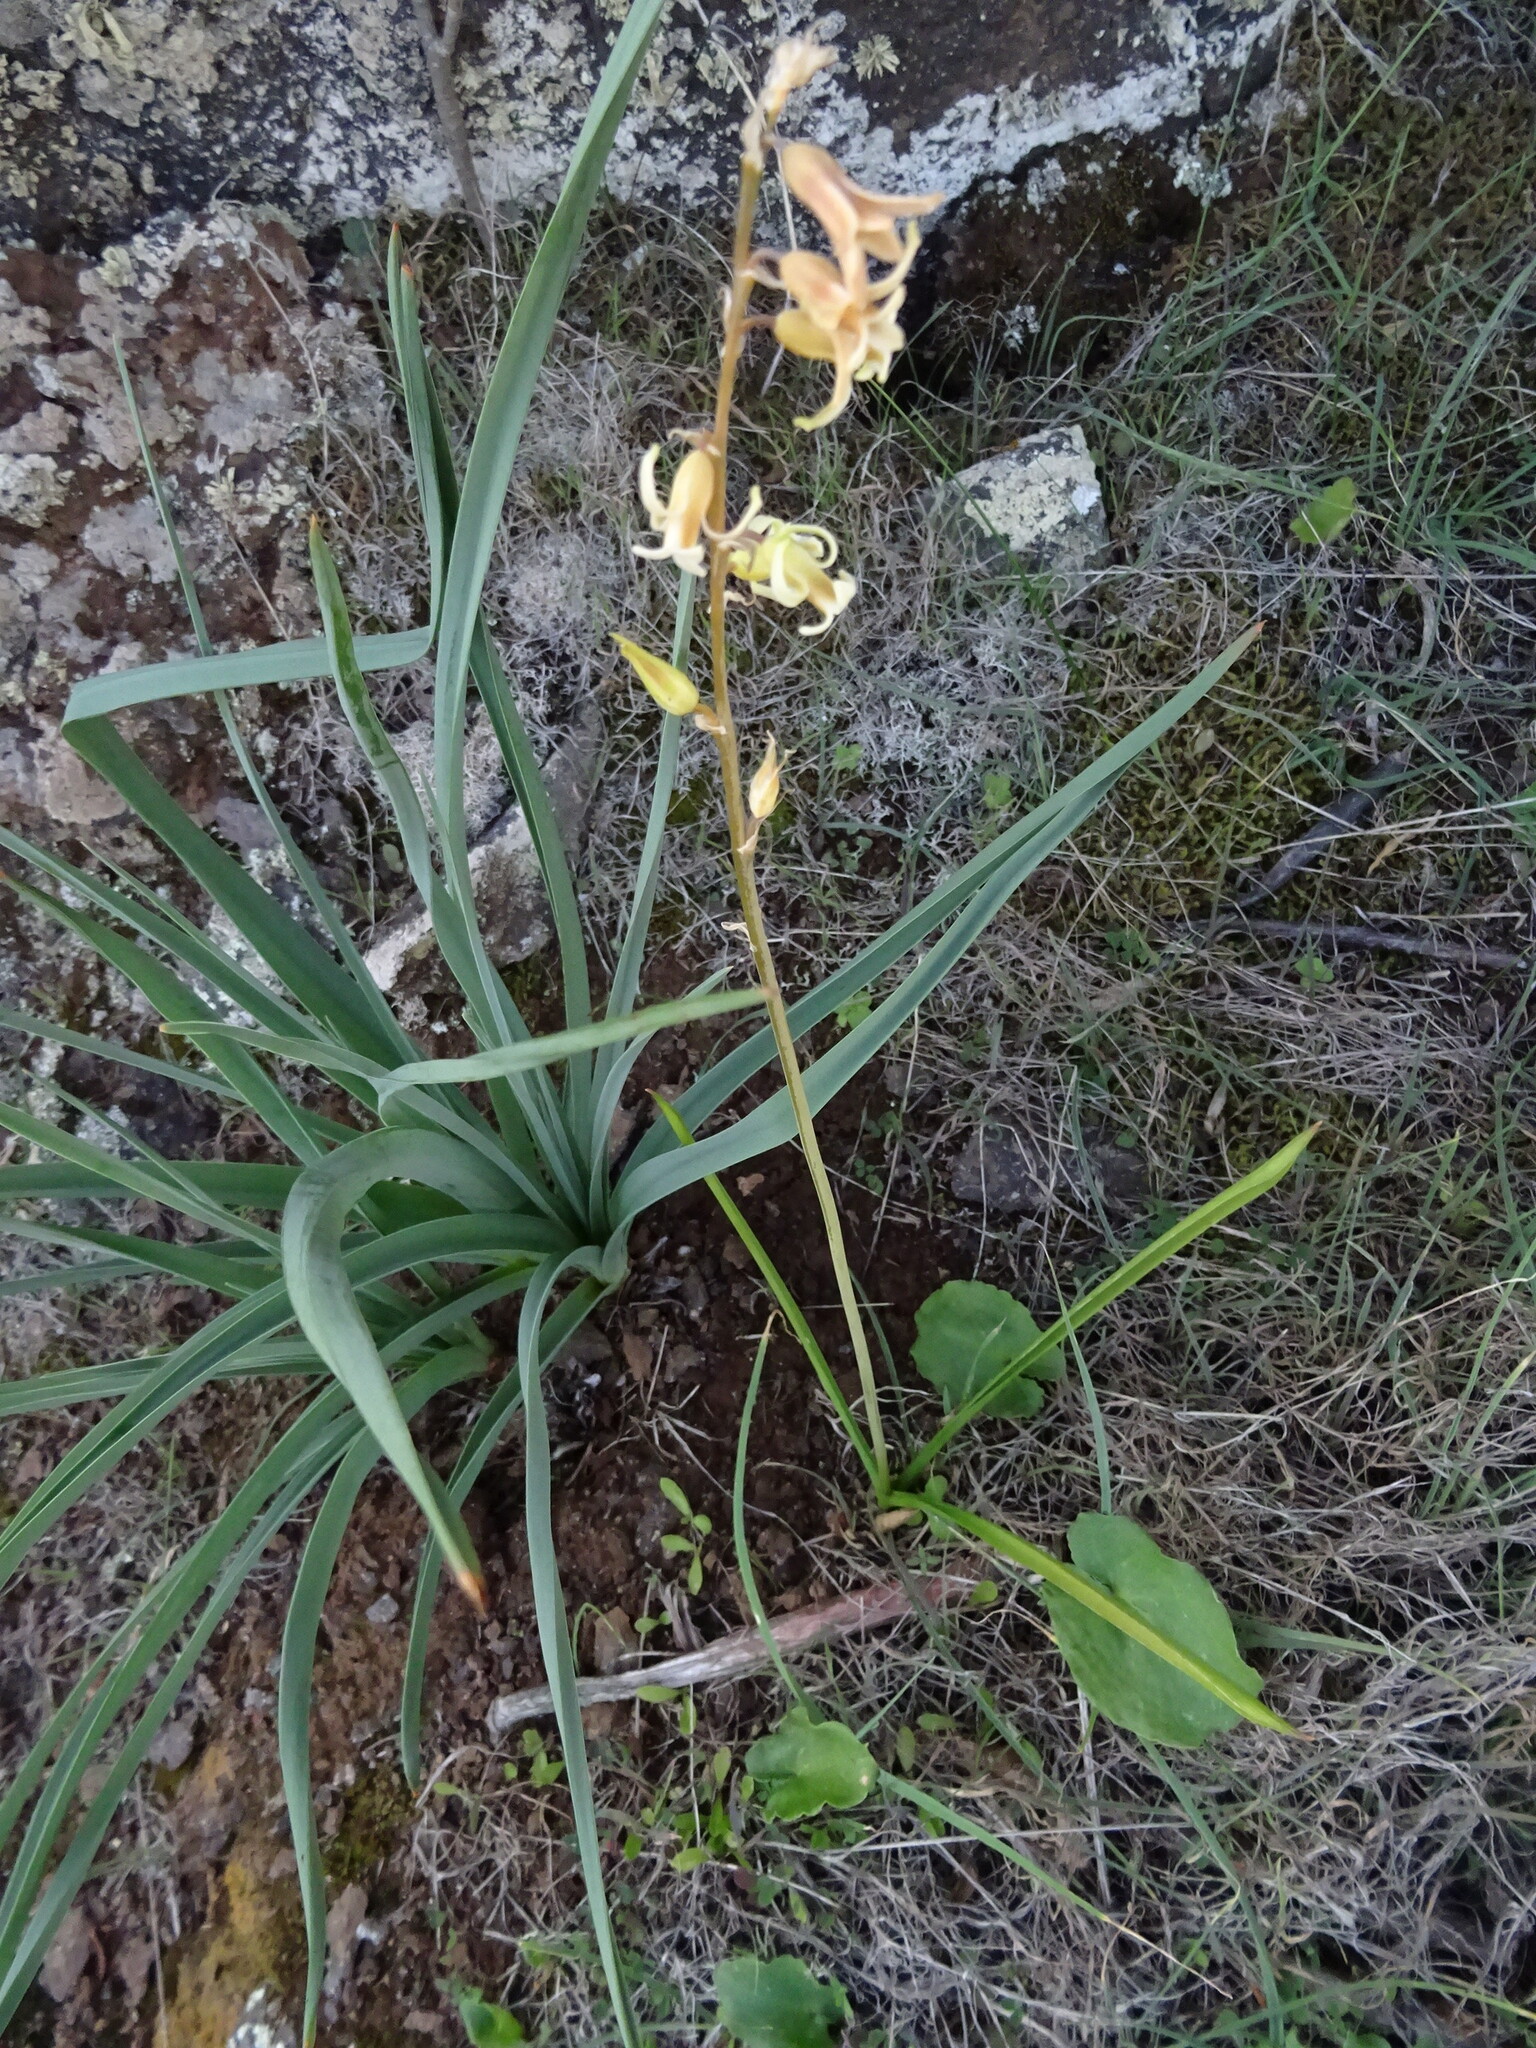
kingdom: Plantae
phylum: Tracheophyta
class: Liliopsida
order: Asparagales
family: Asparagaceae
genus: Dipcadi
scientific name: Dipcadi serotinum
